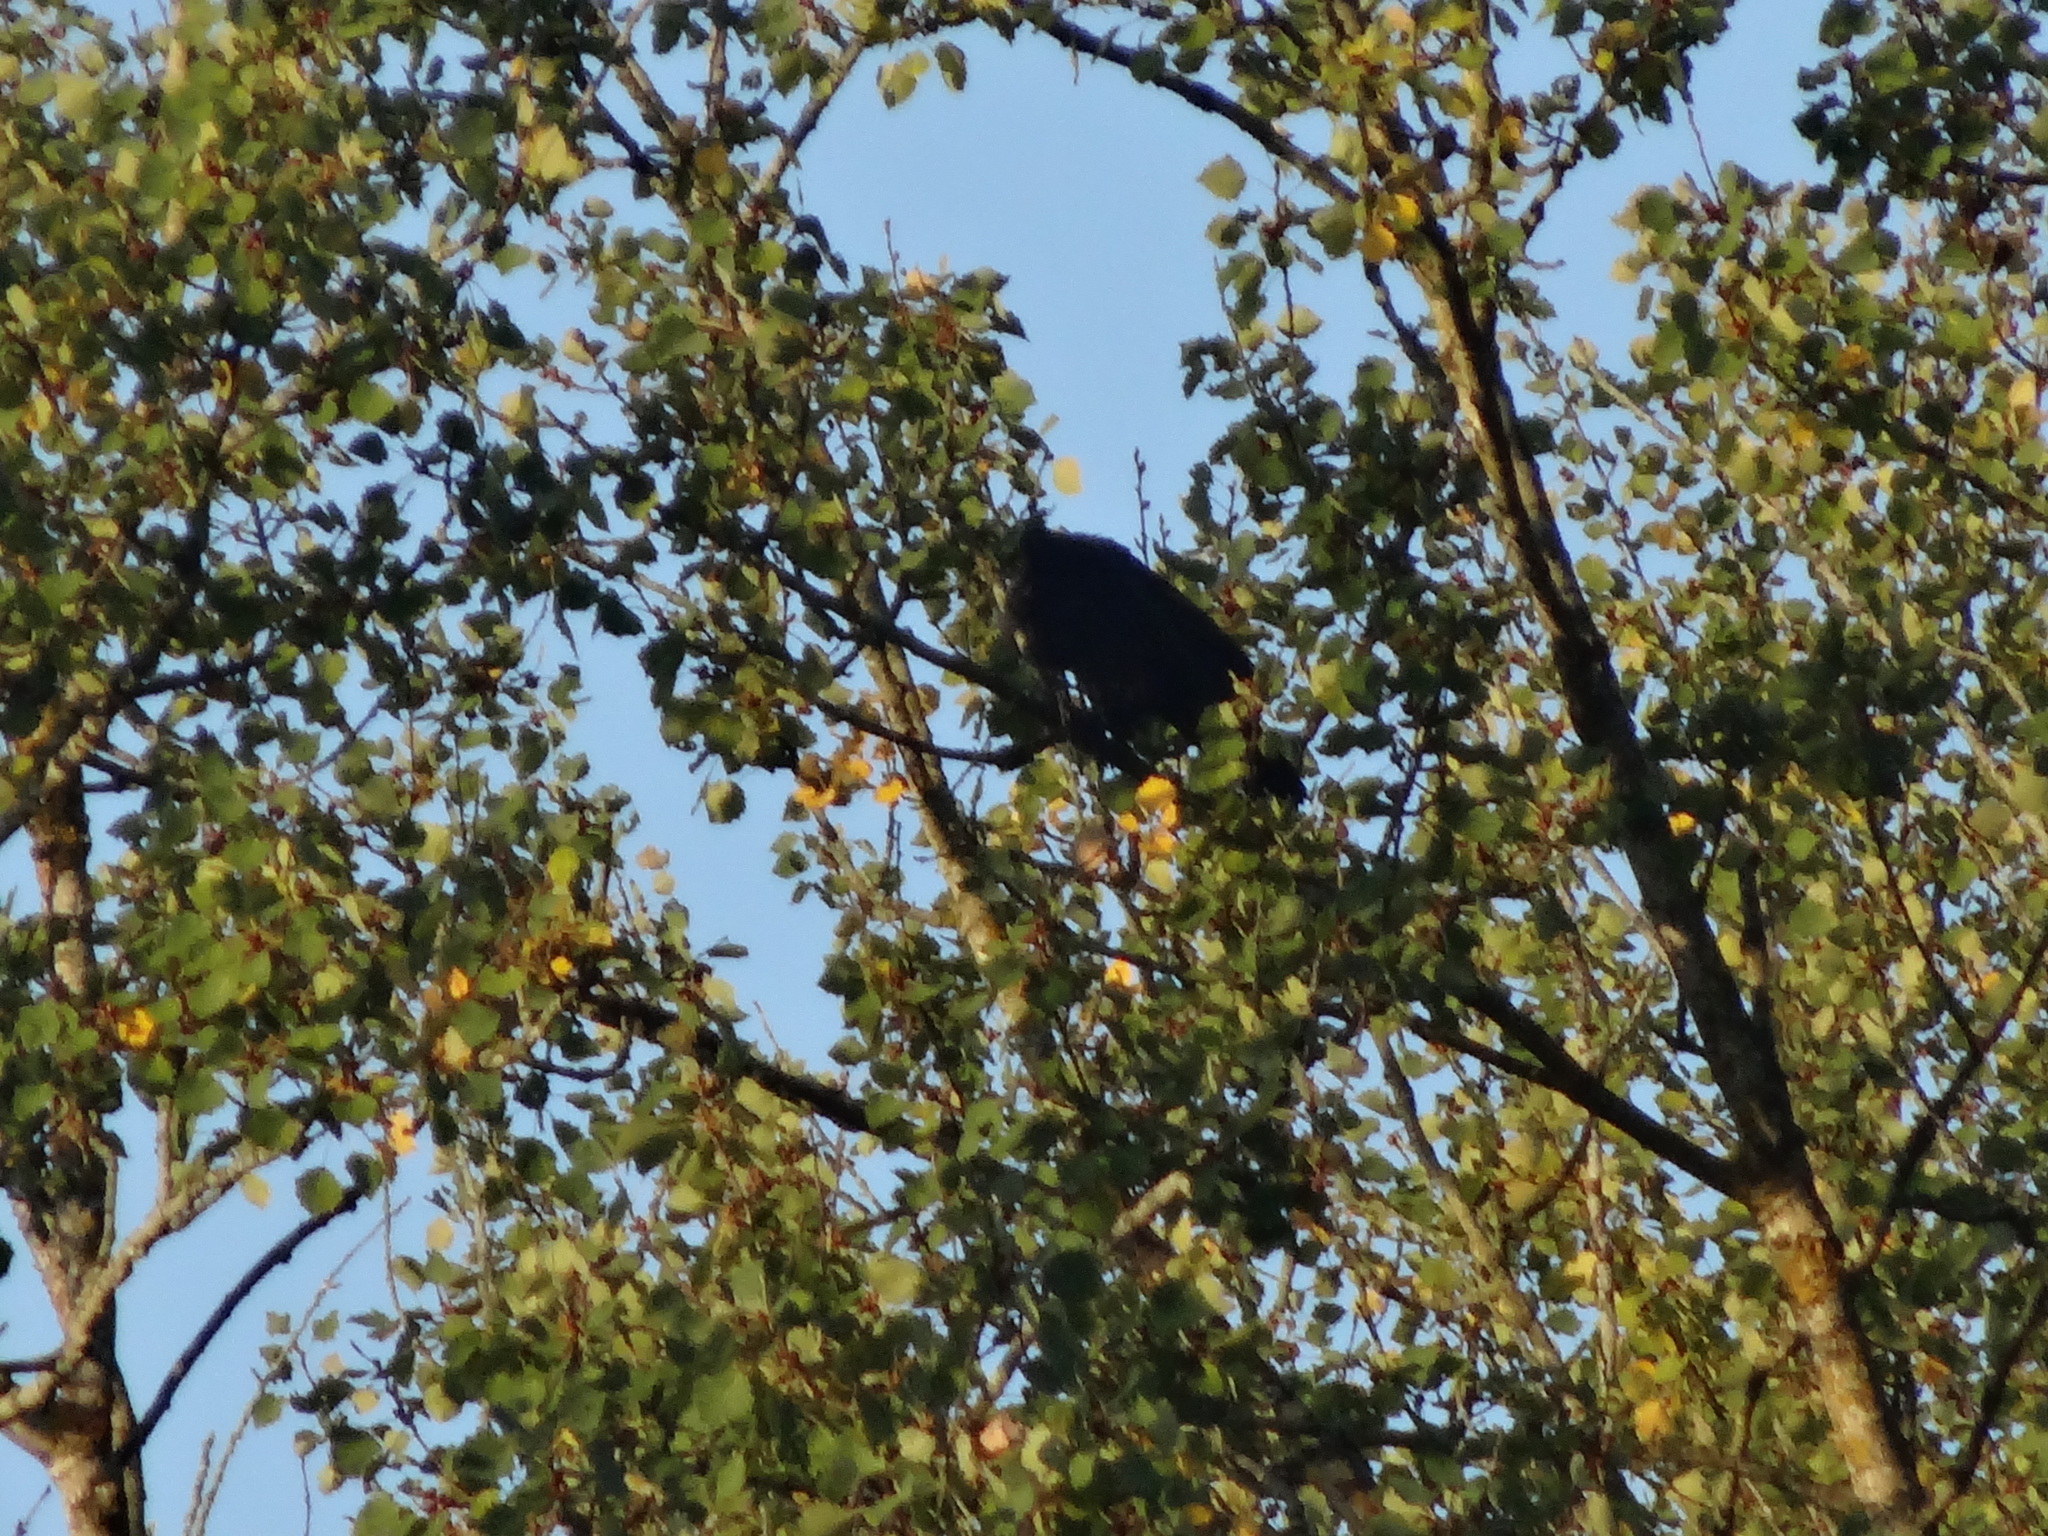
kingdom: Animalia
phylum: Chordata
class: Aves
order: Passeriformes
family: Corvidae
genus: Corvus
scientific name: Corvus corone
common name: Carrion crow
